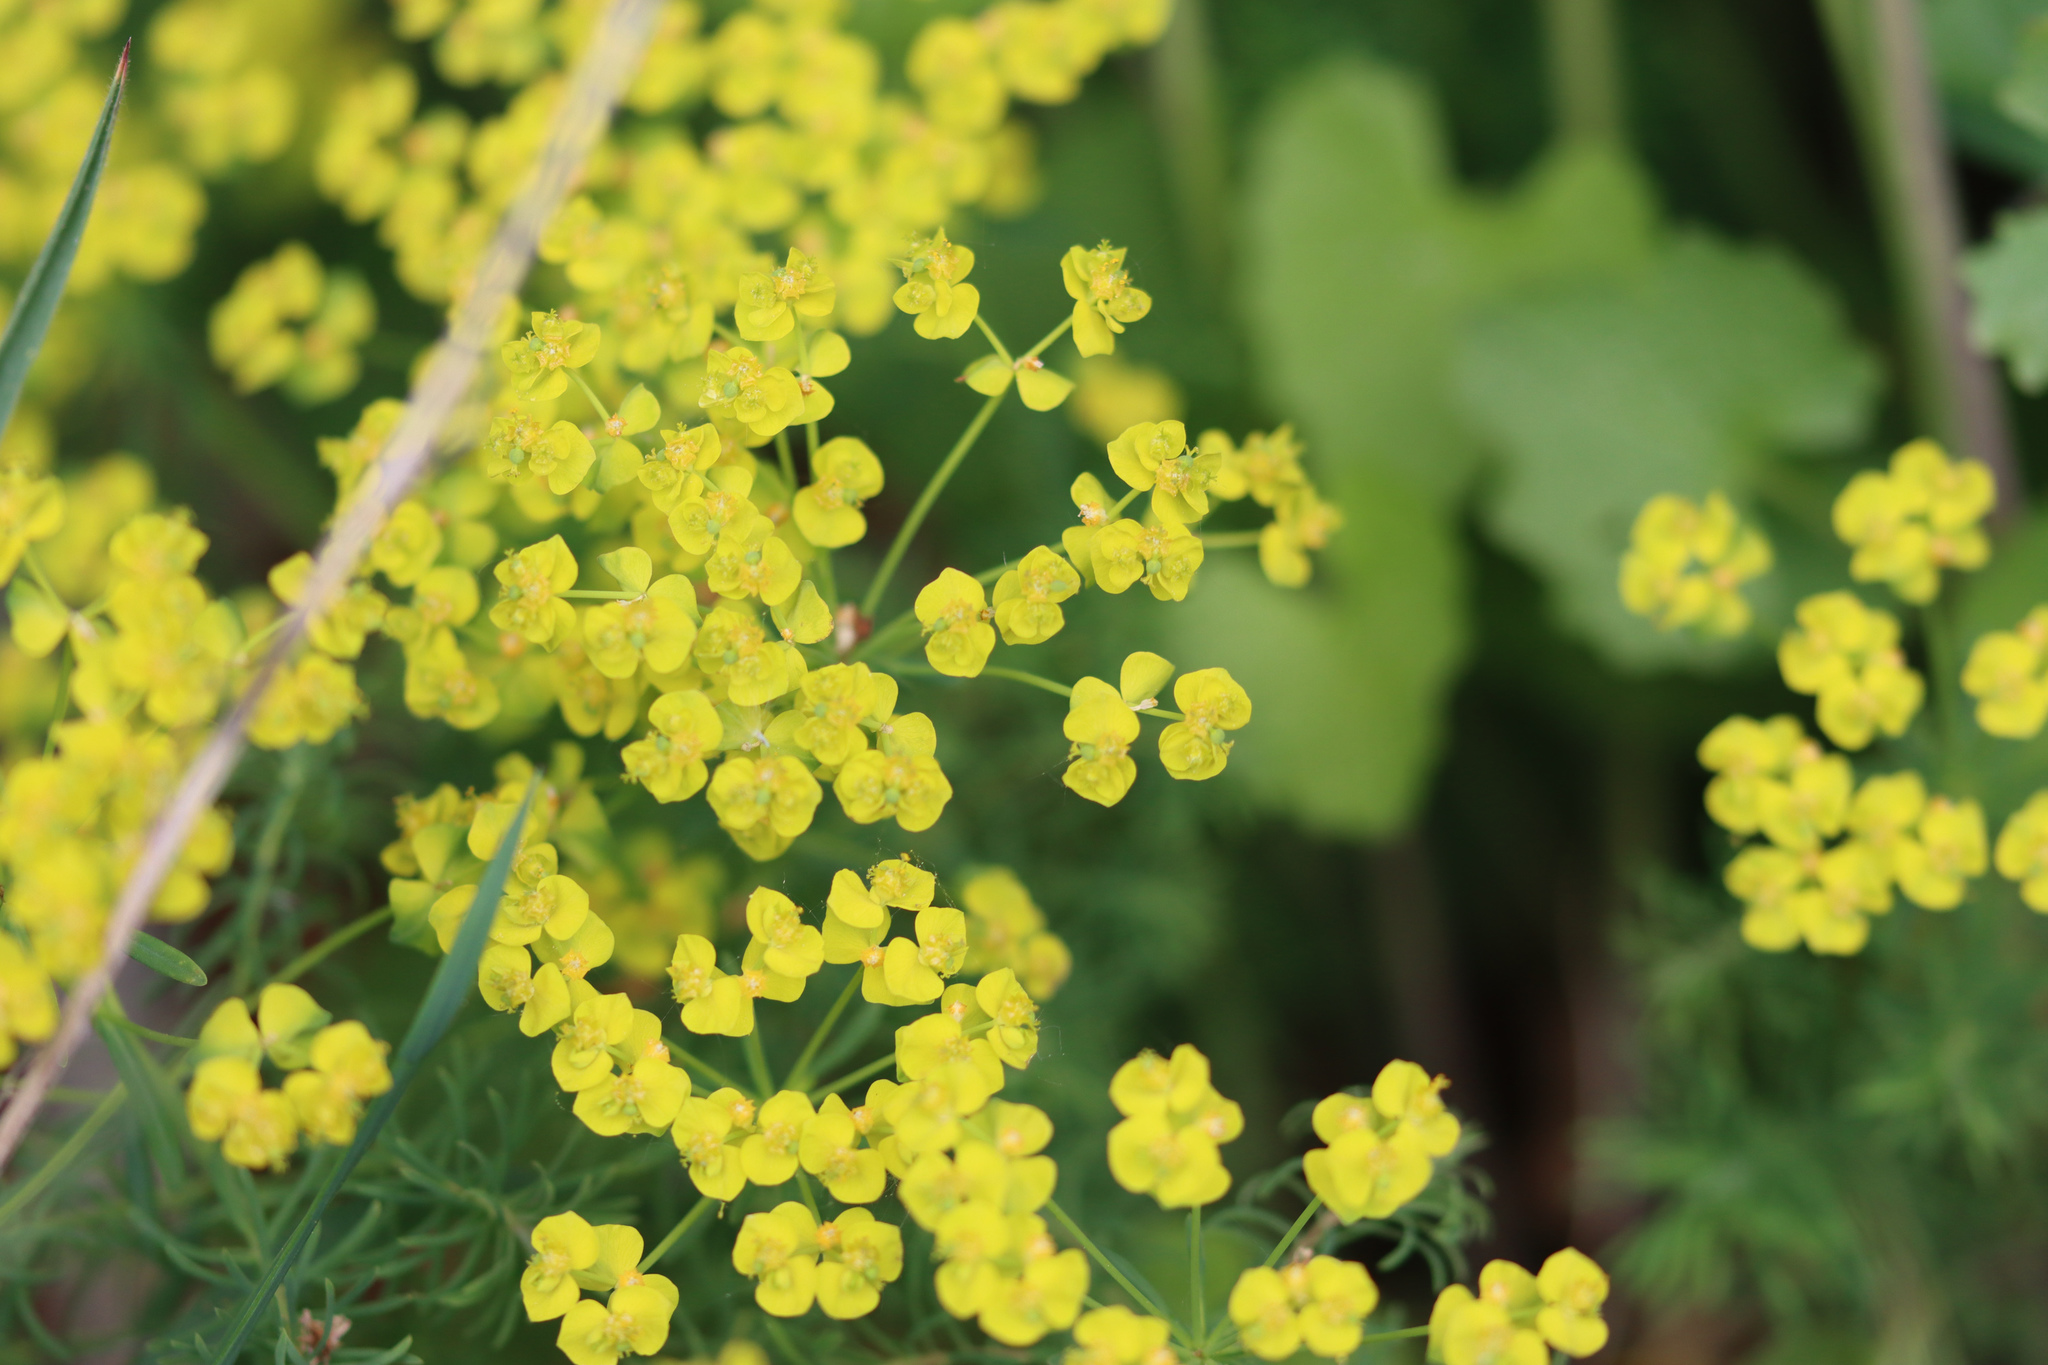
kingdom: Plantae
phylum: Tracheophyta
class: Magnoliopsida
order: Malpighiales
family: Euphorbiaceae
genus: Euphorbia
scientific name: Euphorbia cyparissias
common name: Cypress spurge
